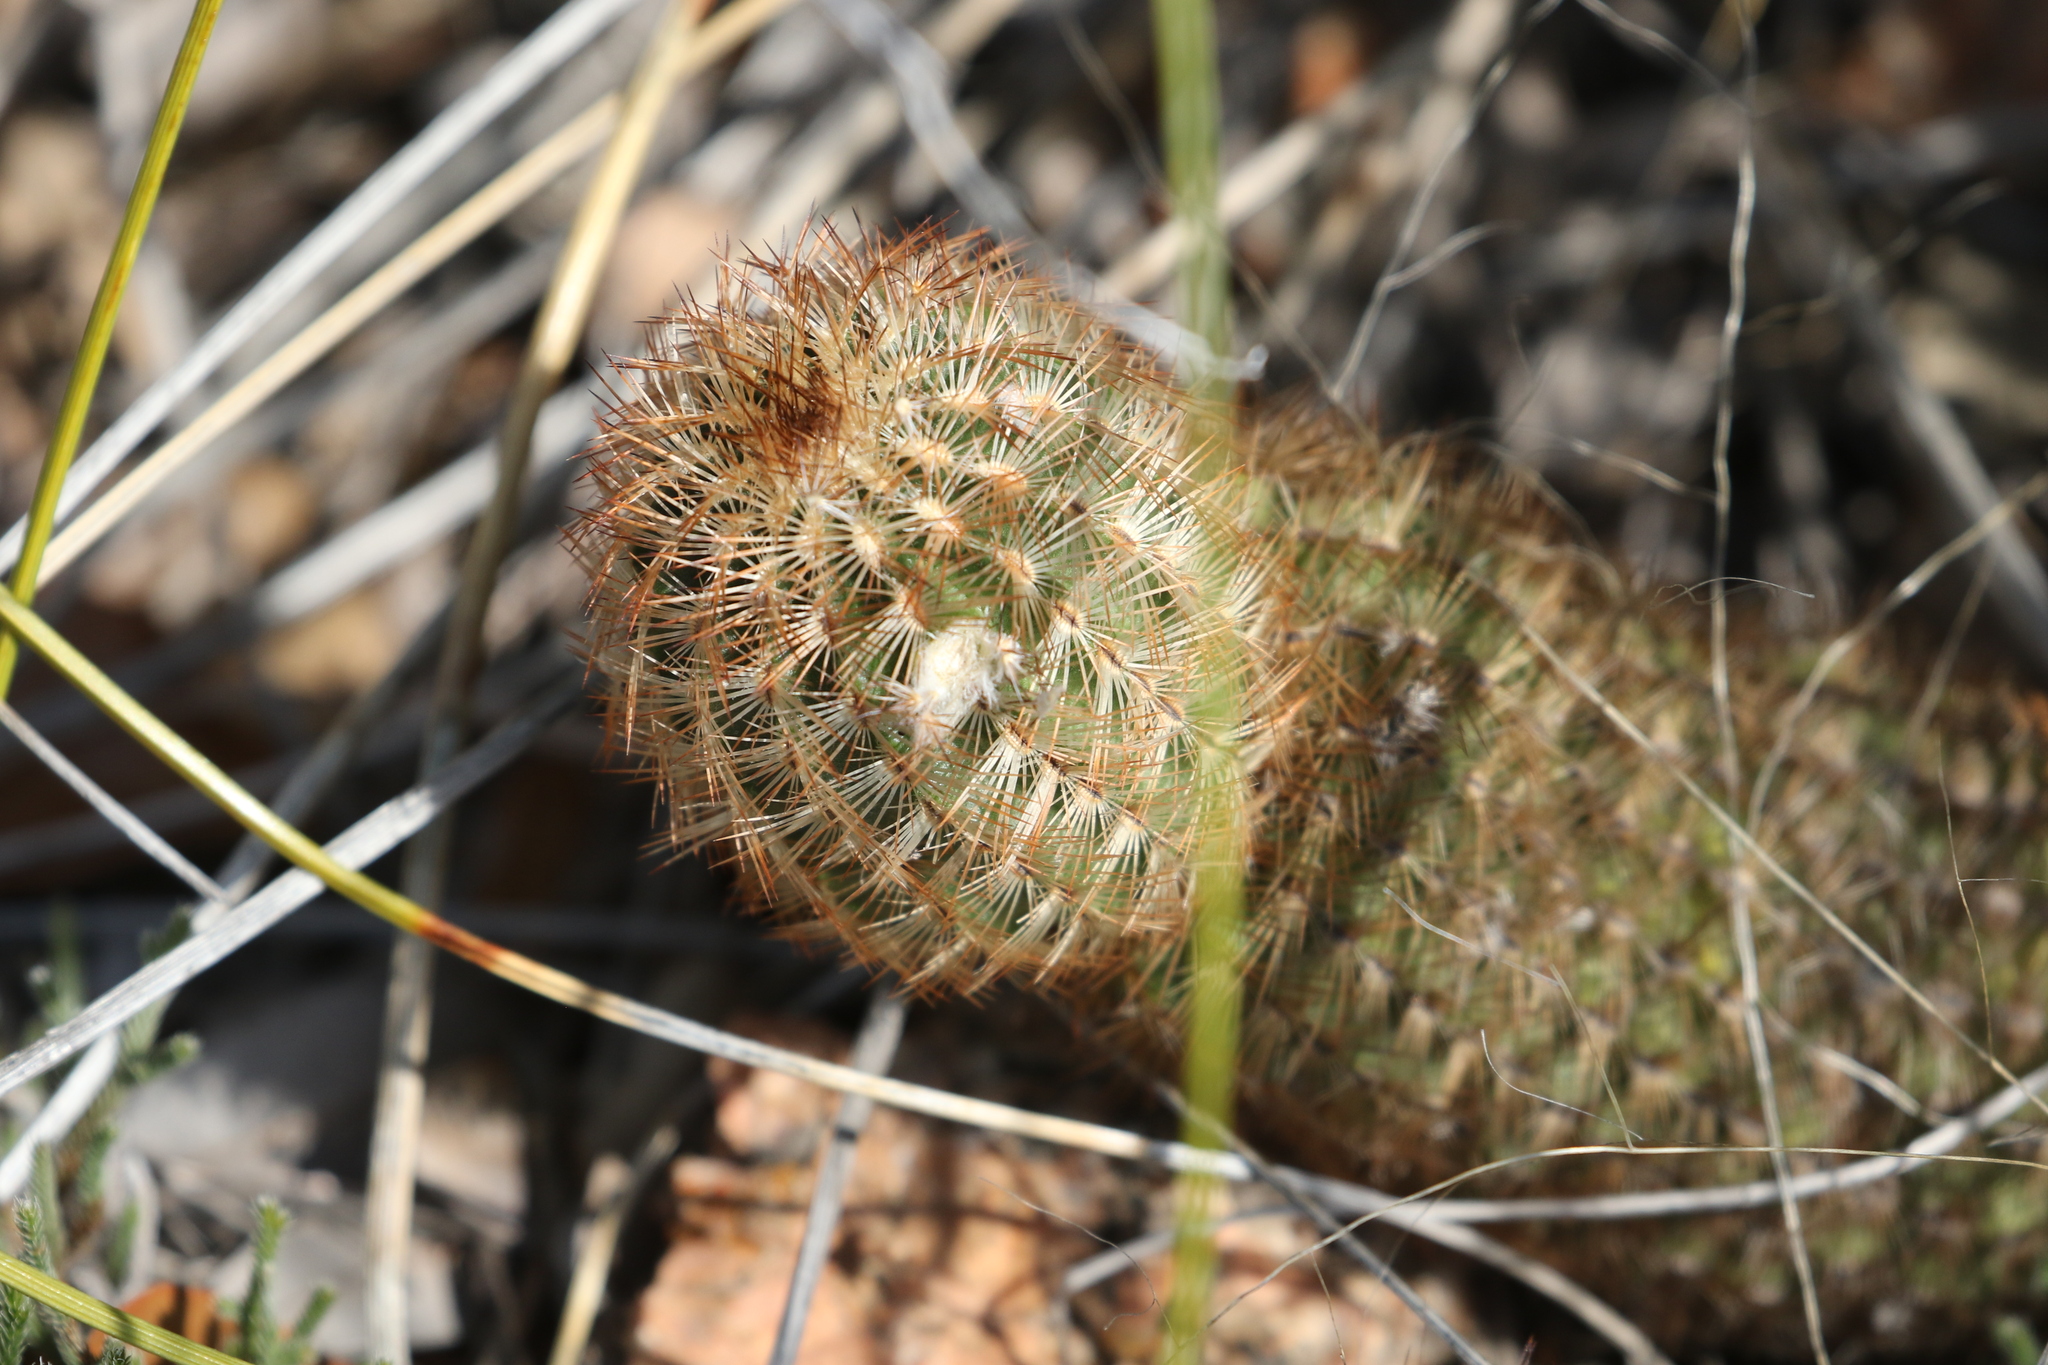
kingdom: Plantae
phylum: Tracheophyta
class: Magnoliopsida
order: Caryophyllales
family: Cactaceae
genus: Echinocereus
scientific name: Echinocereus reichenbachii
